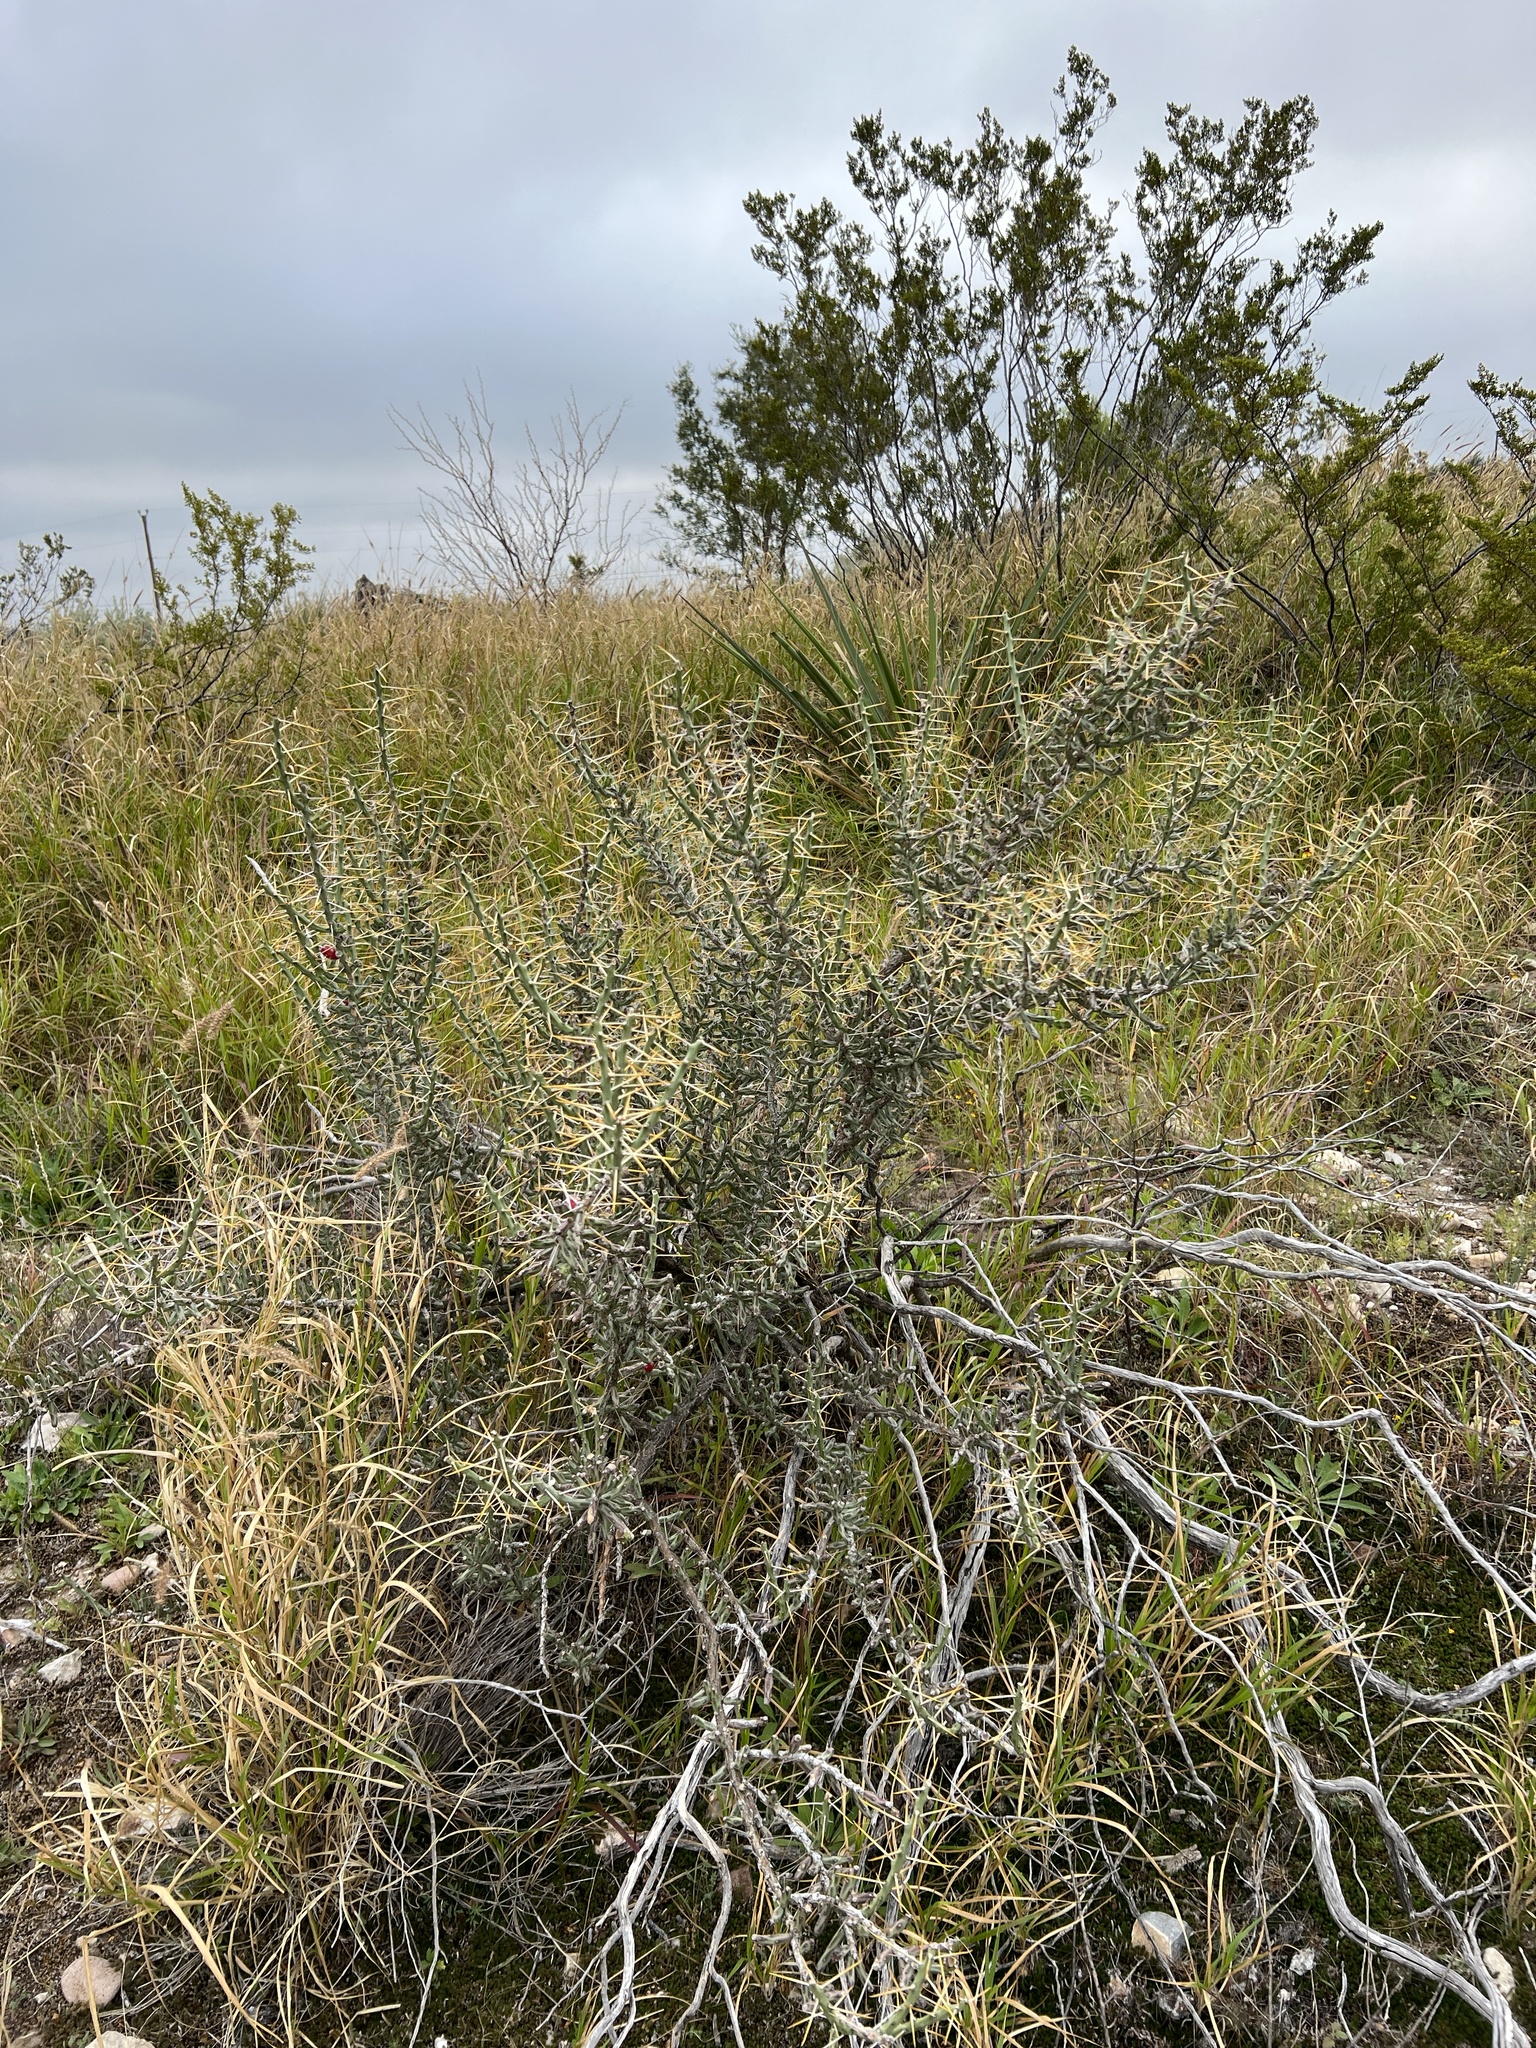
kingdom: Plantae
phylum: Tracheophyta
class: Magnoliopsida
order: Caryophyllales
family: Cactaceae
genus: Cylindropuntia
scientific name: Cylindropuntia leptocaulis
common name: Christmas cactus
